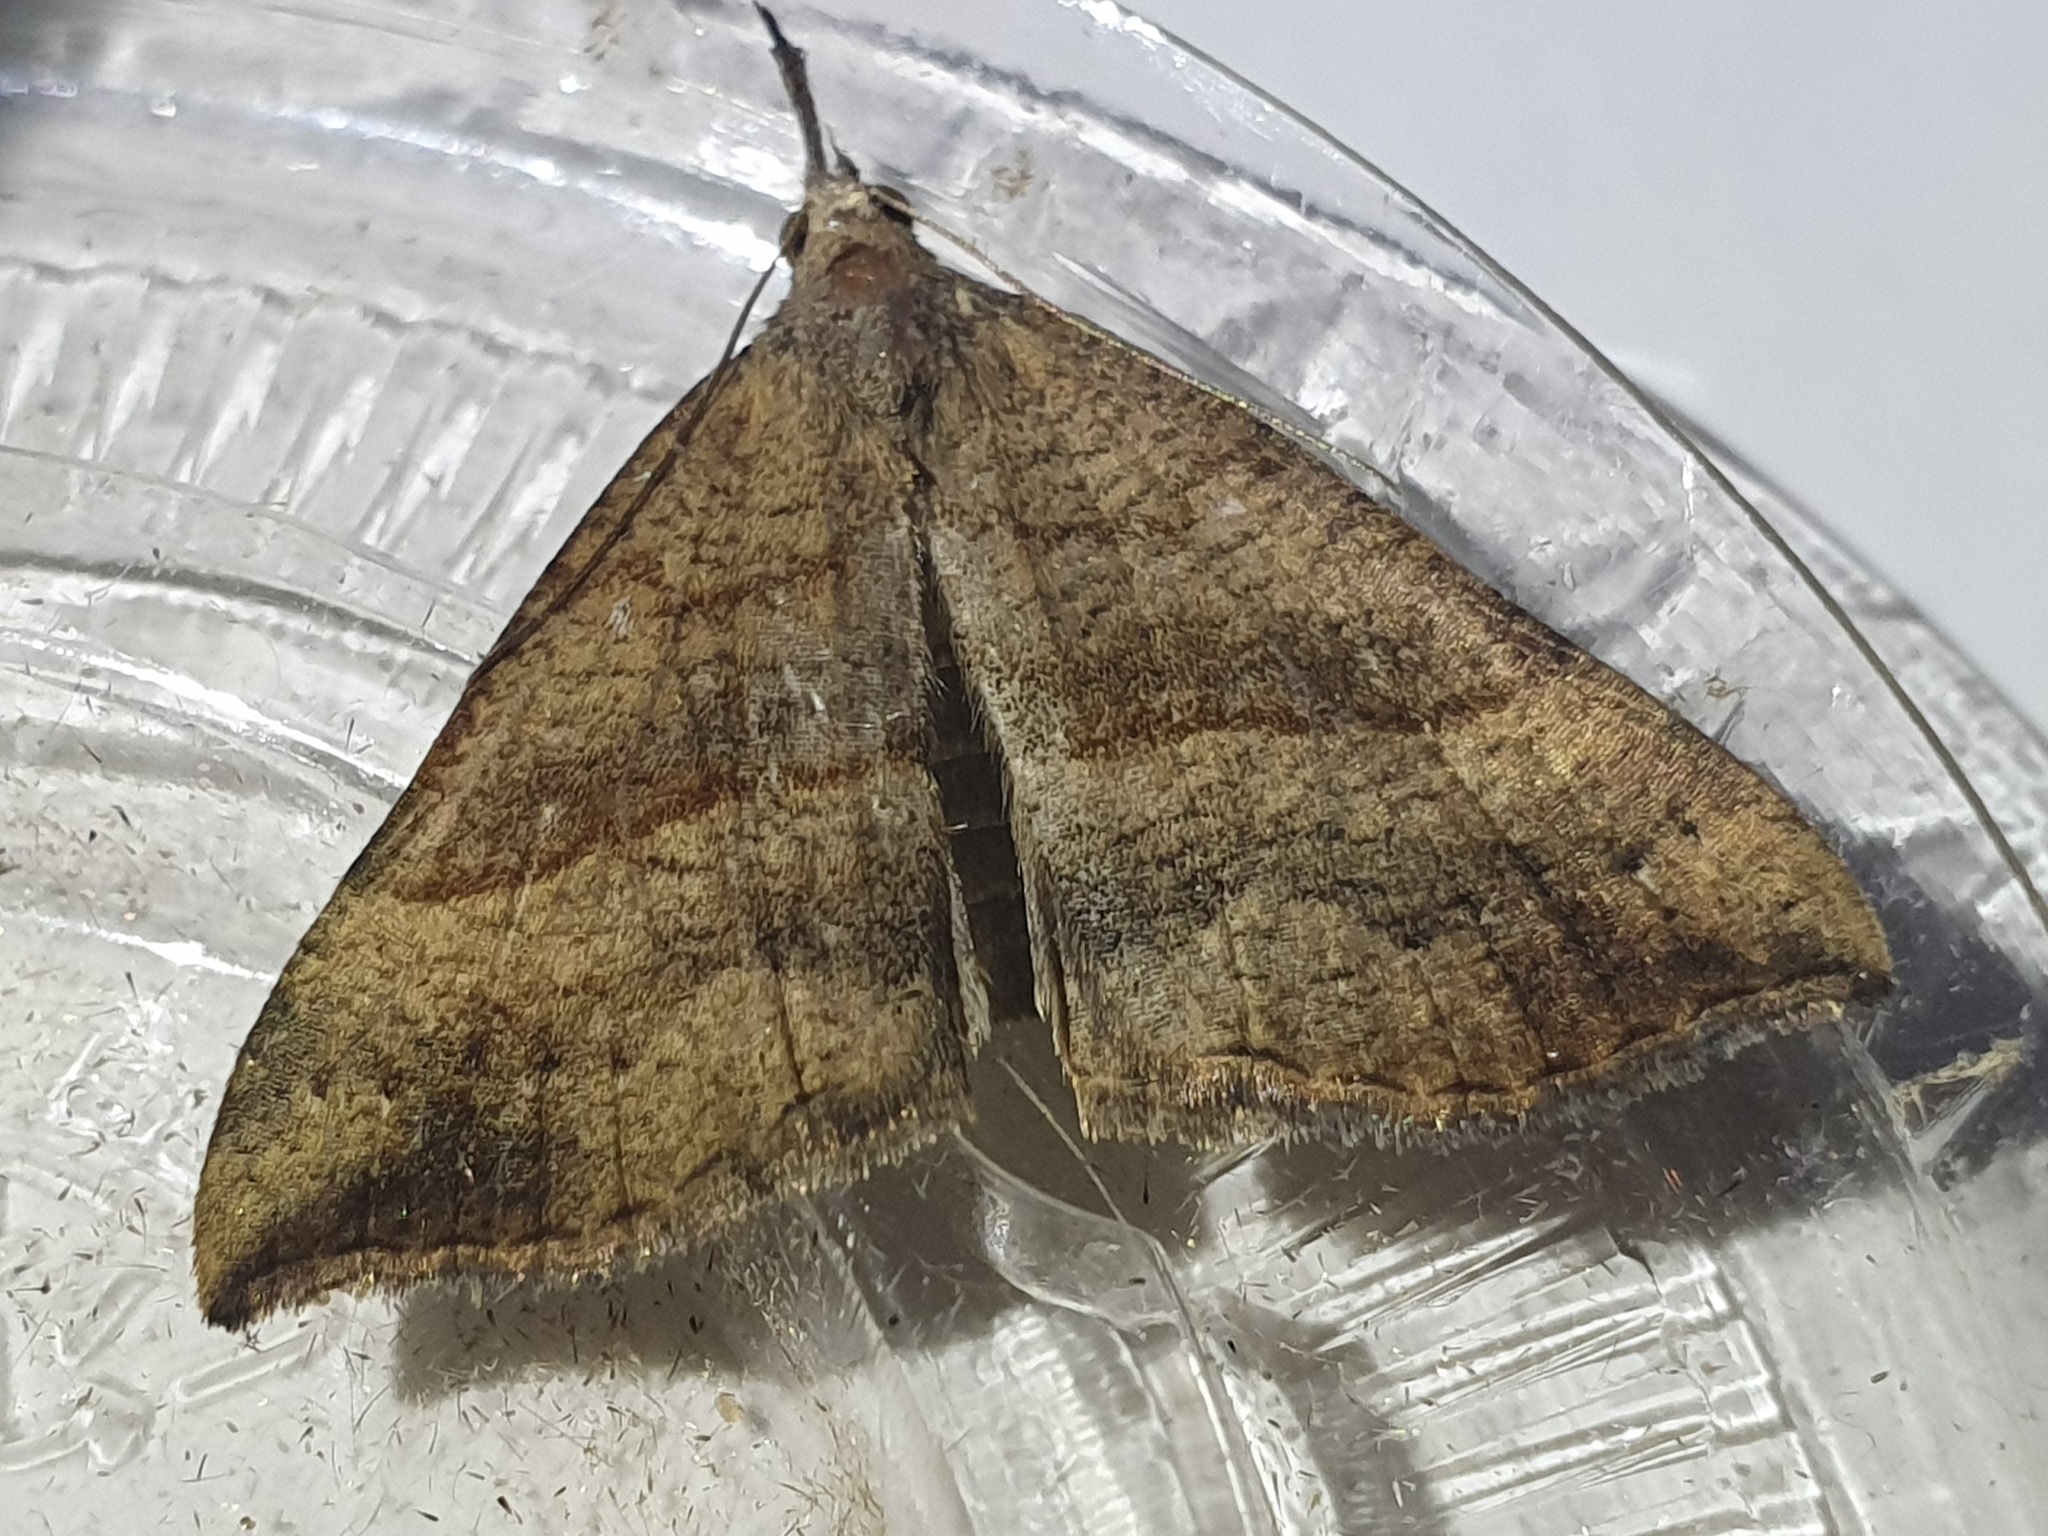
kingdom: Animalia
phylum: Arthropoda
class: Insecta
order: Lepidoptera
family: Erebidae
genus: Hypena
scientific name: Hypena proboscidalis
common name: Snout
